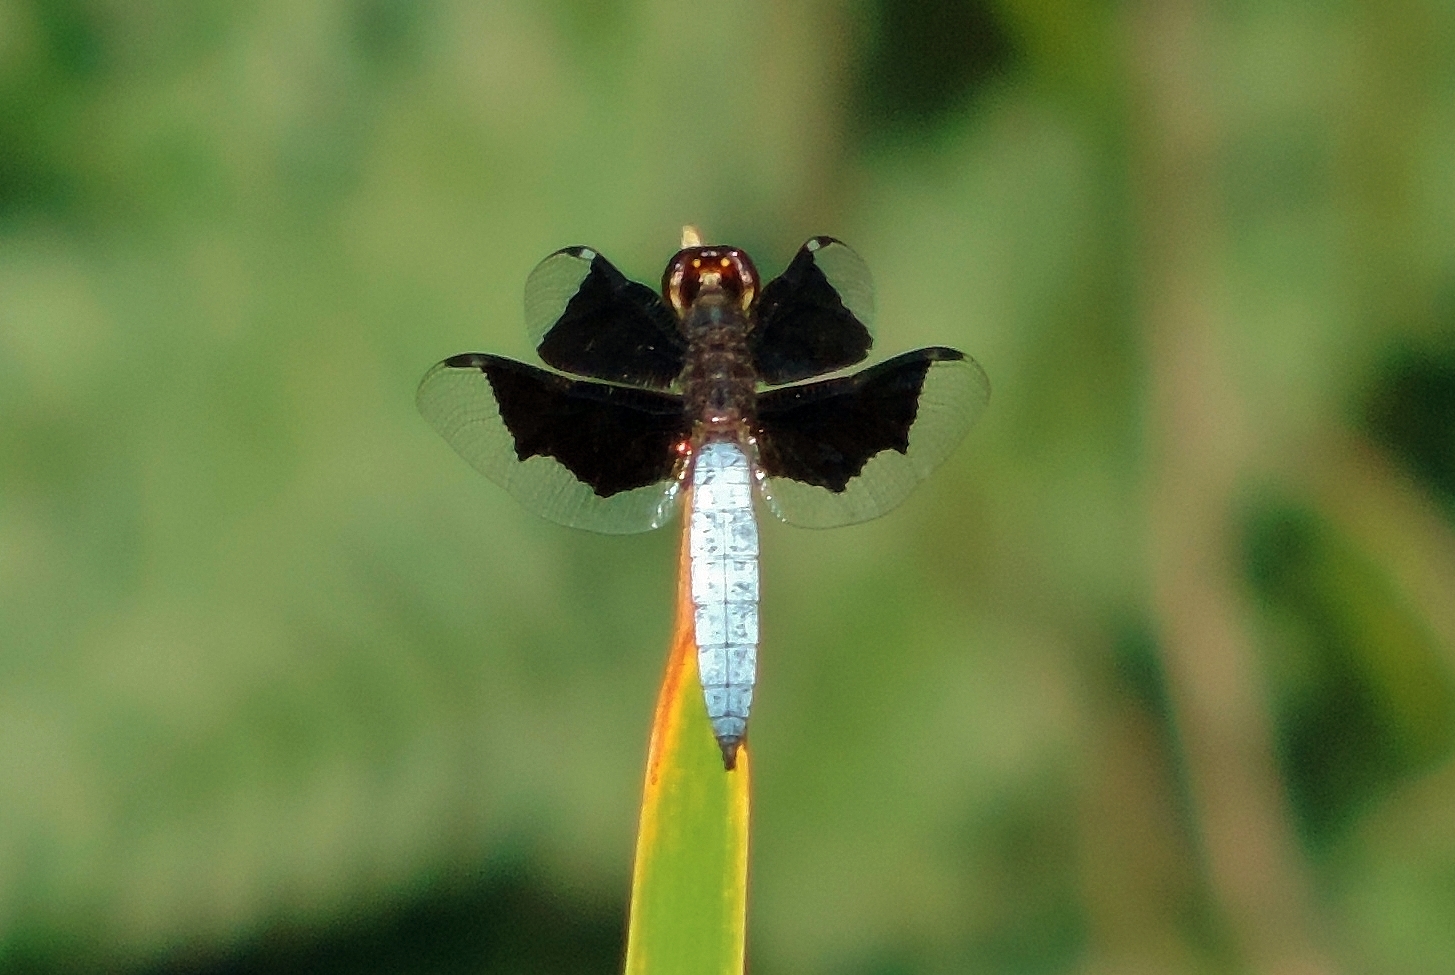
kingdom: Animalia
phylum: Arthropoda
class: Insecta
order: Odonata
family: Libellulidae
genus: Palpopleura
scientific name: Palpopleura lucia
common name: Lucia widow
